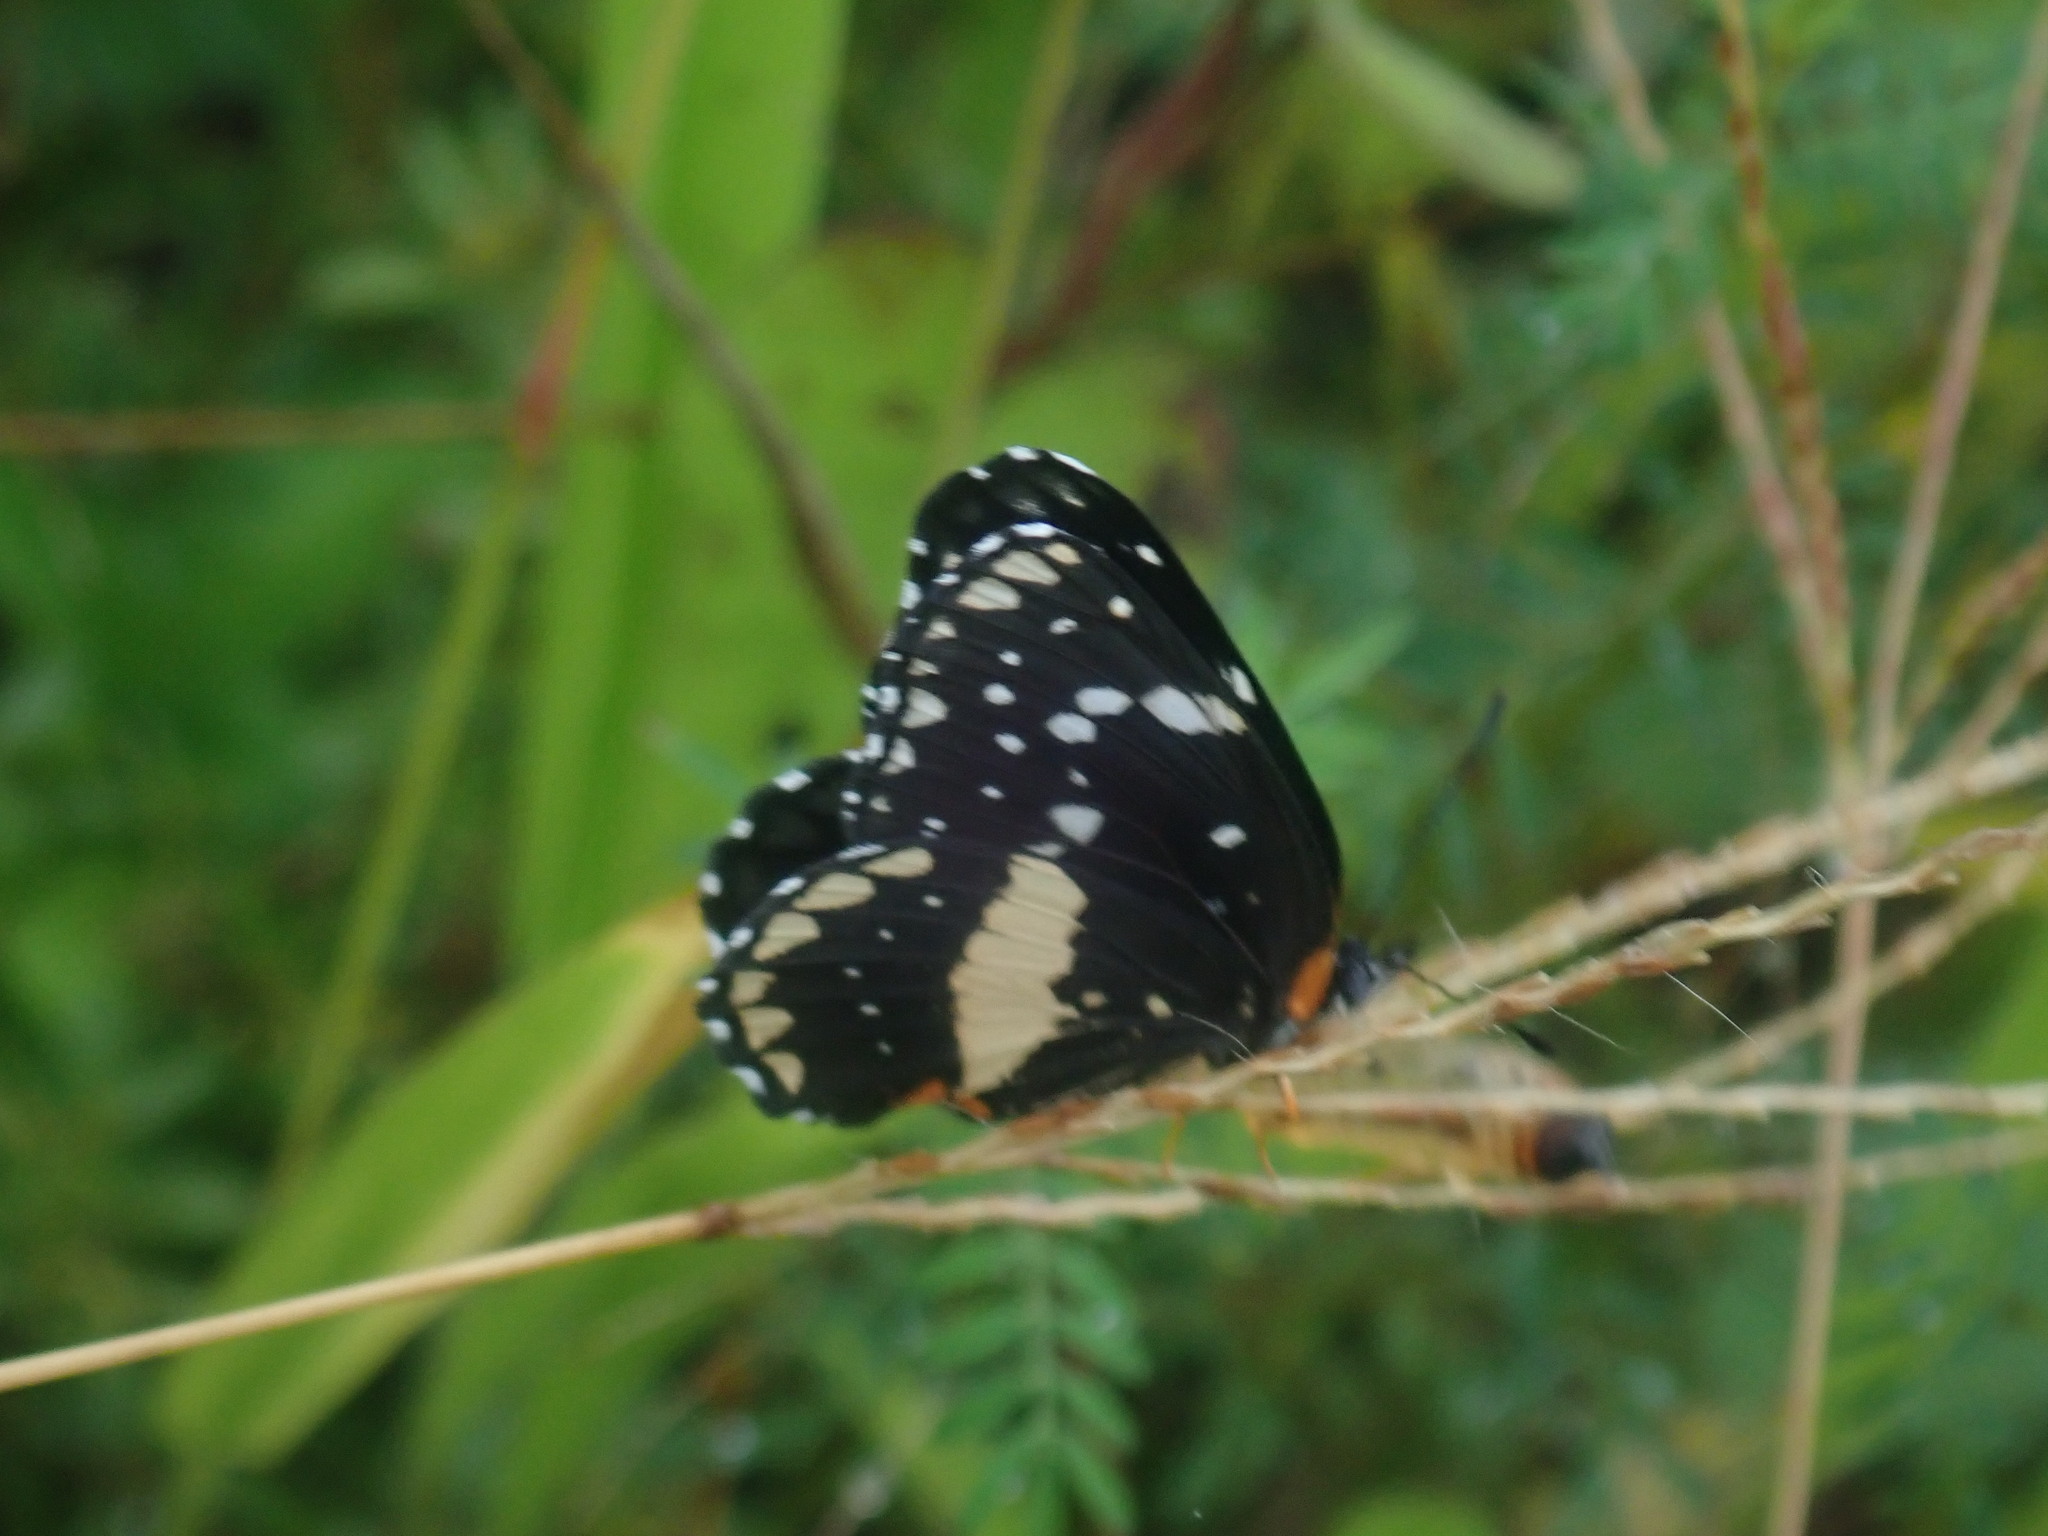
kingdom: Animalia
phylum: Arthropoda
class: Insecta
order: Lepidoptera
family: Nymphalidae
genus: Chlosyne
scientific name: Chlosyne lacinia
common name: Bordered patch
